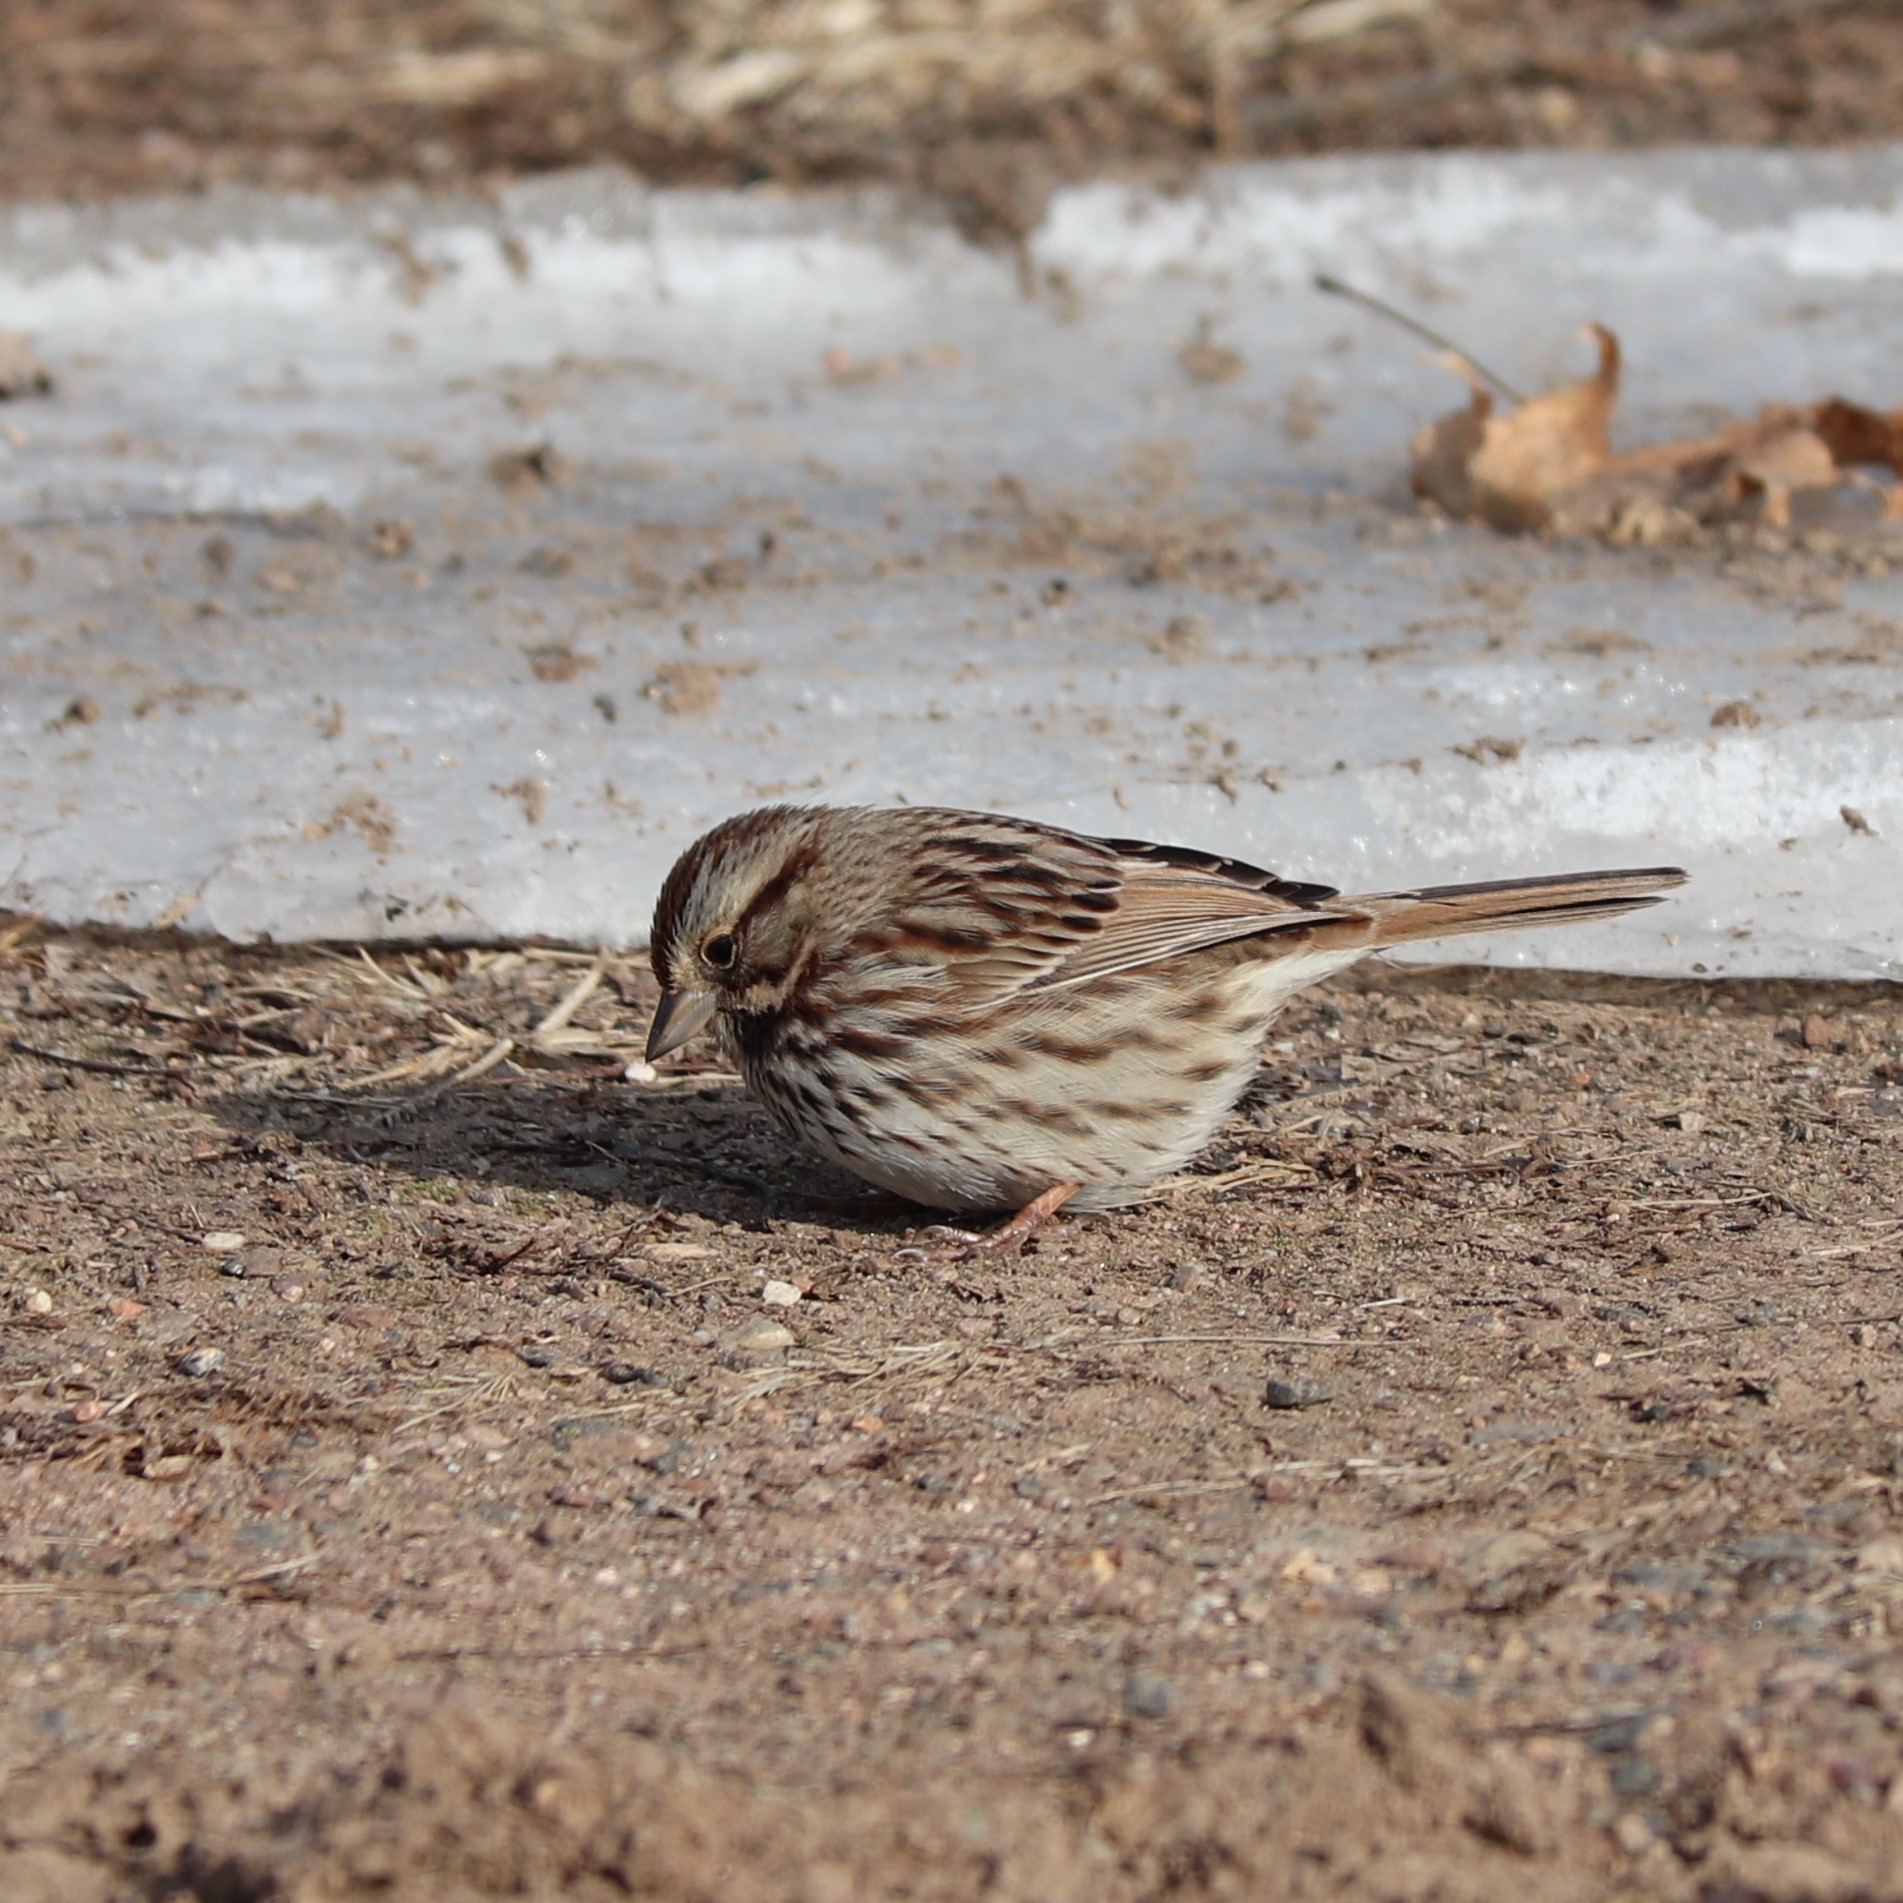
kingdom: Animalia
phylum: Chordata
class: Aves
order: Passeriformes
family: Passerellidae
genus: Melospiza
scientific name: Melospiza melodia
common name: Song sparrow
